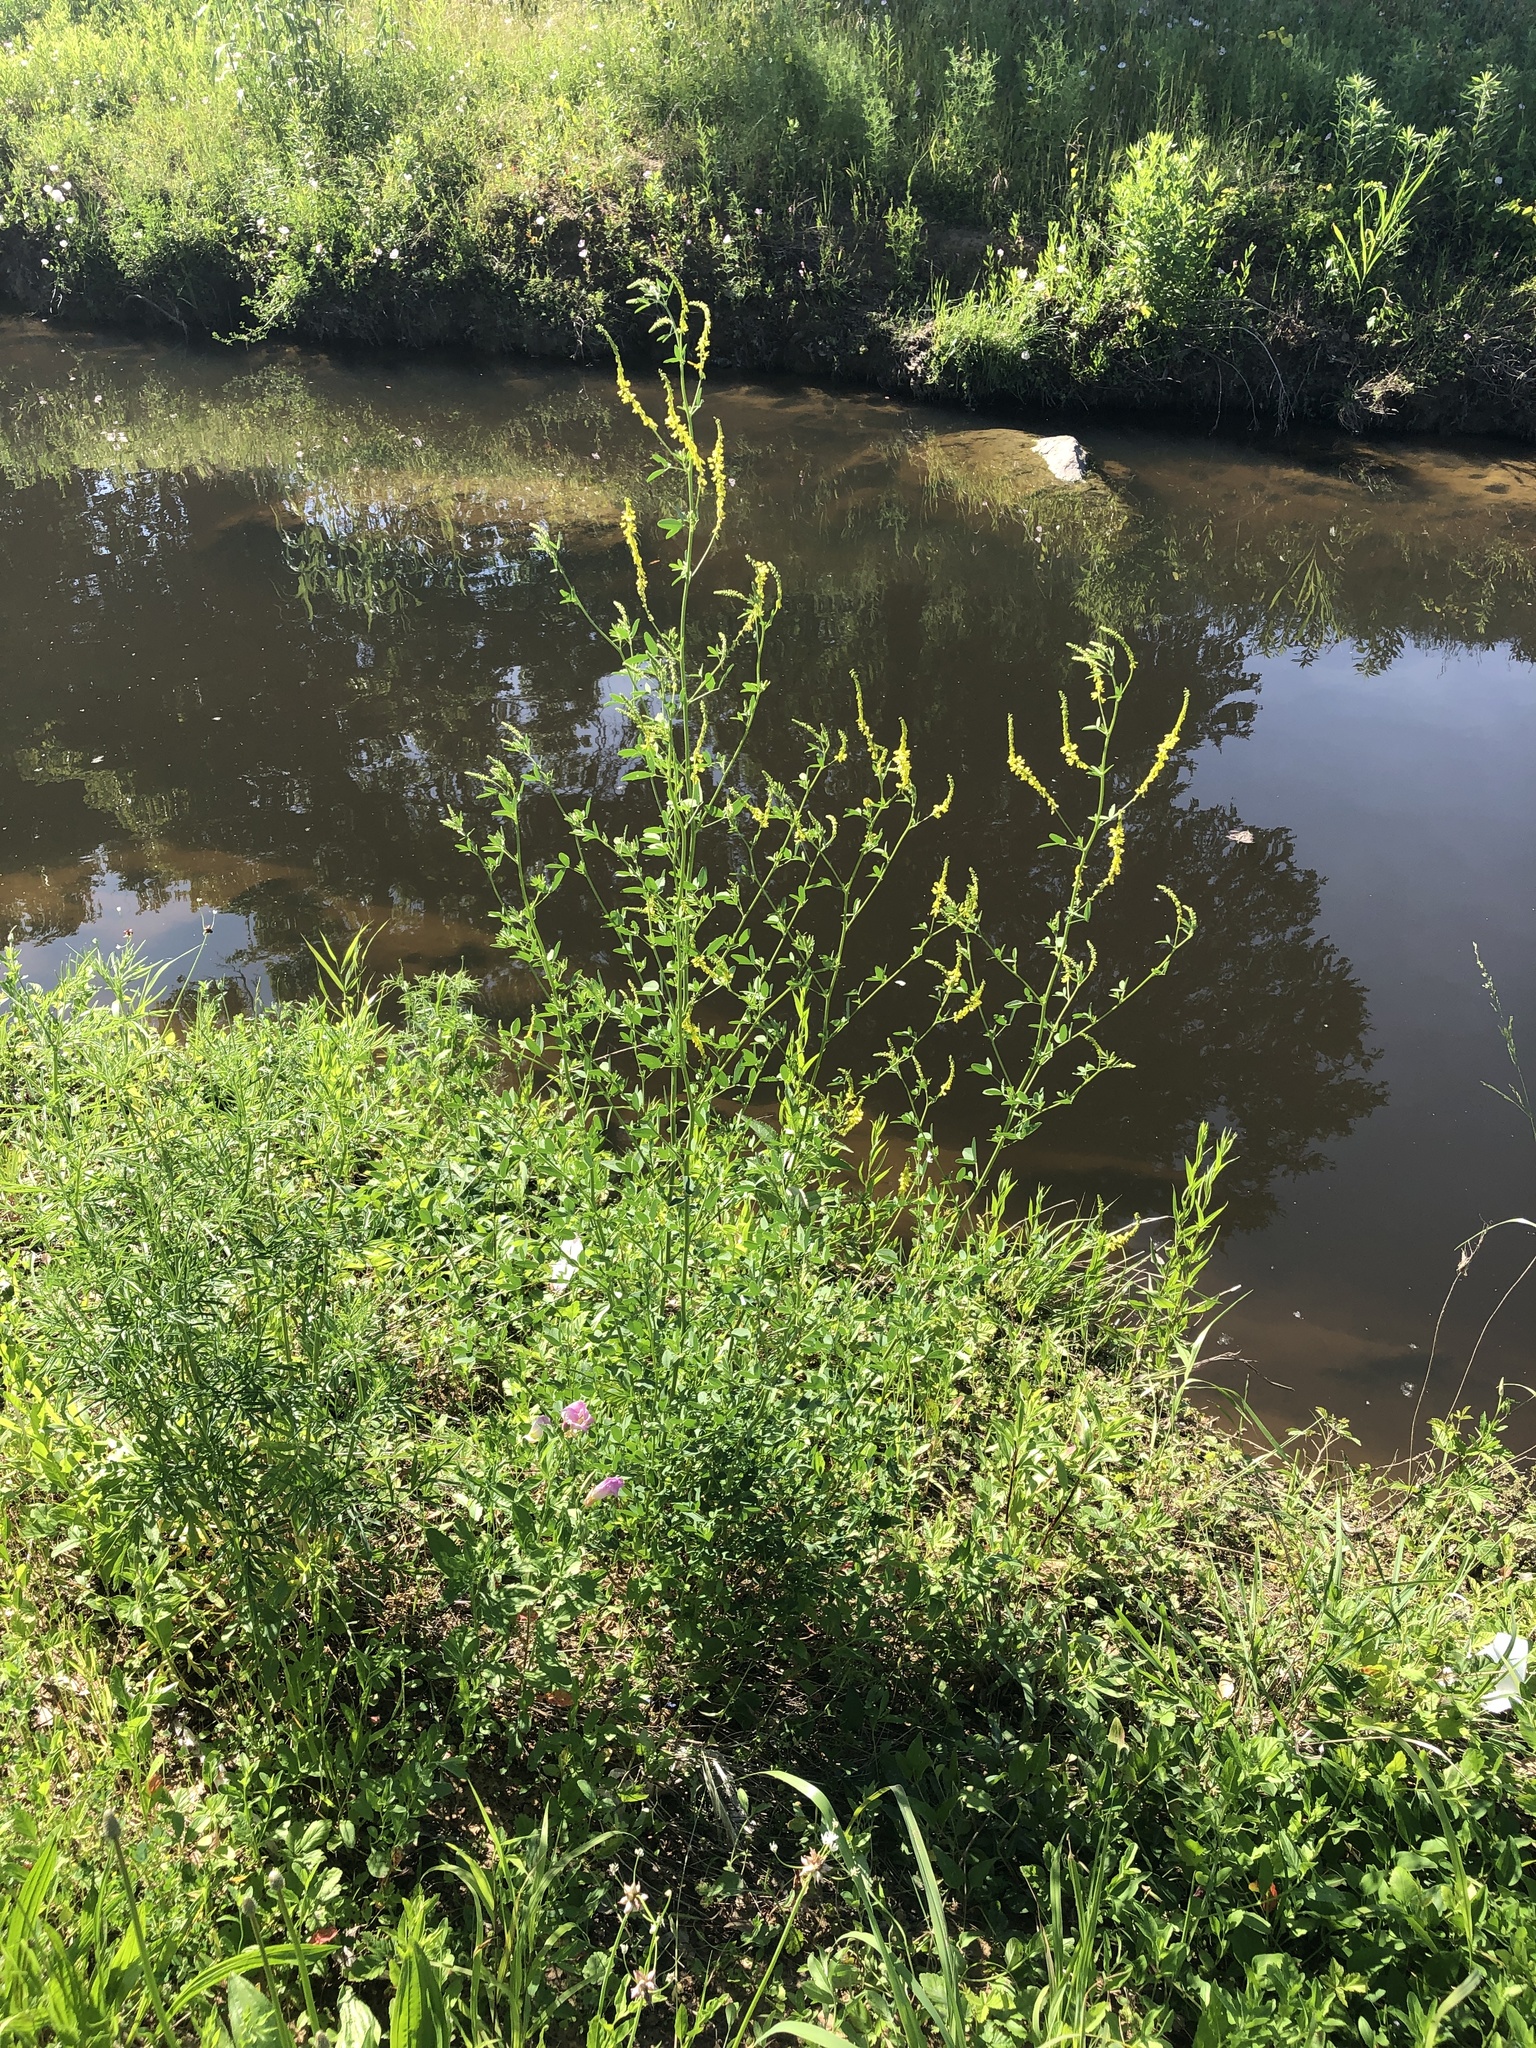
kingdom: Plantae
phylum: Tracheophyta
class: Magnoliopsida
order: Fabales
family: Fabaceae
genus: Melilotus
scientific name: Melilotus officinalis
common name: Sweetclover
